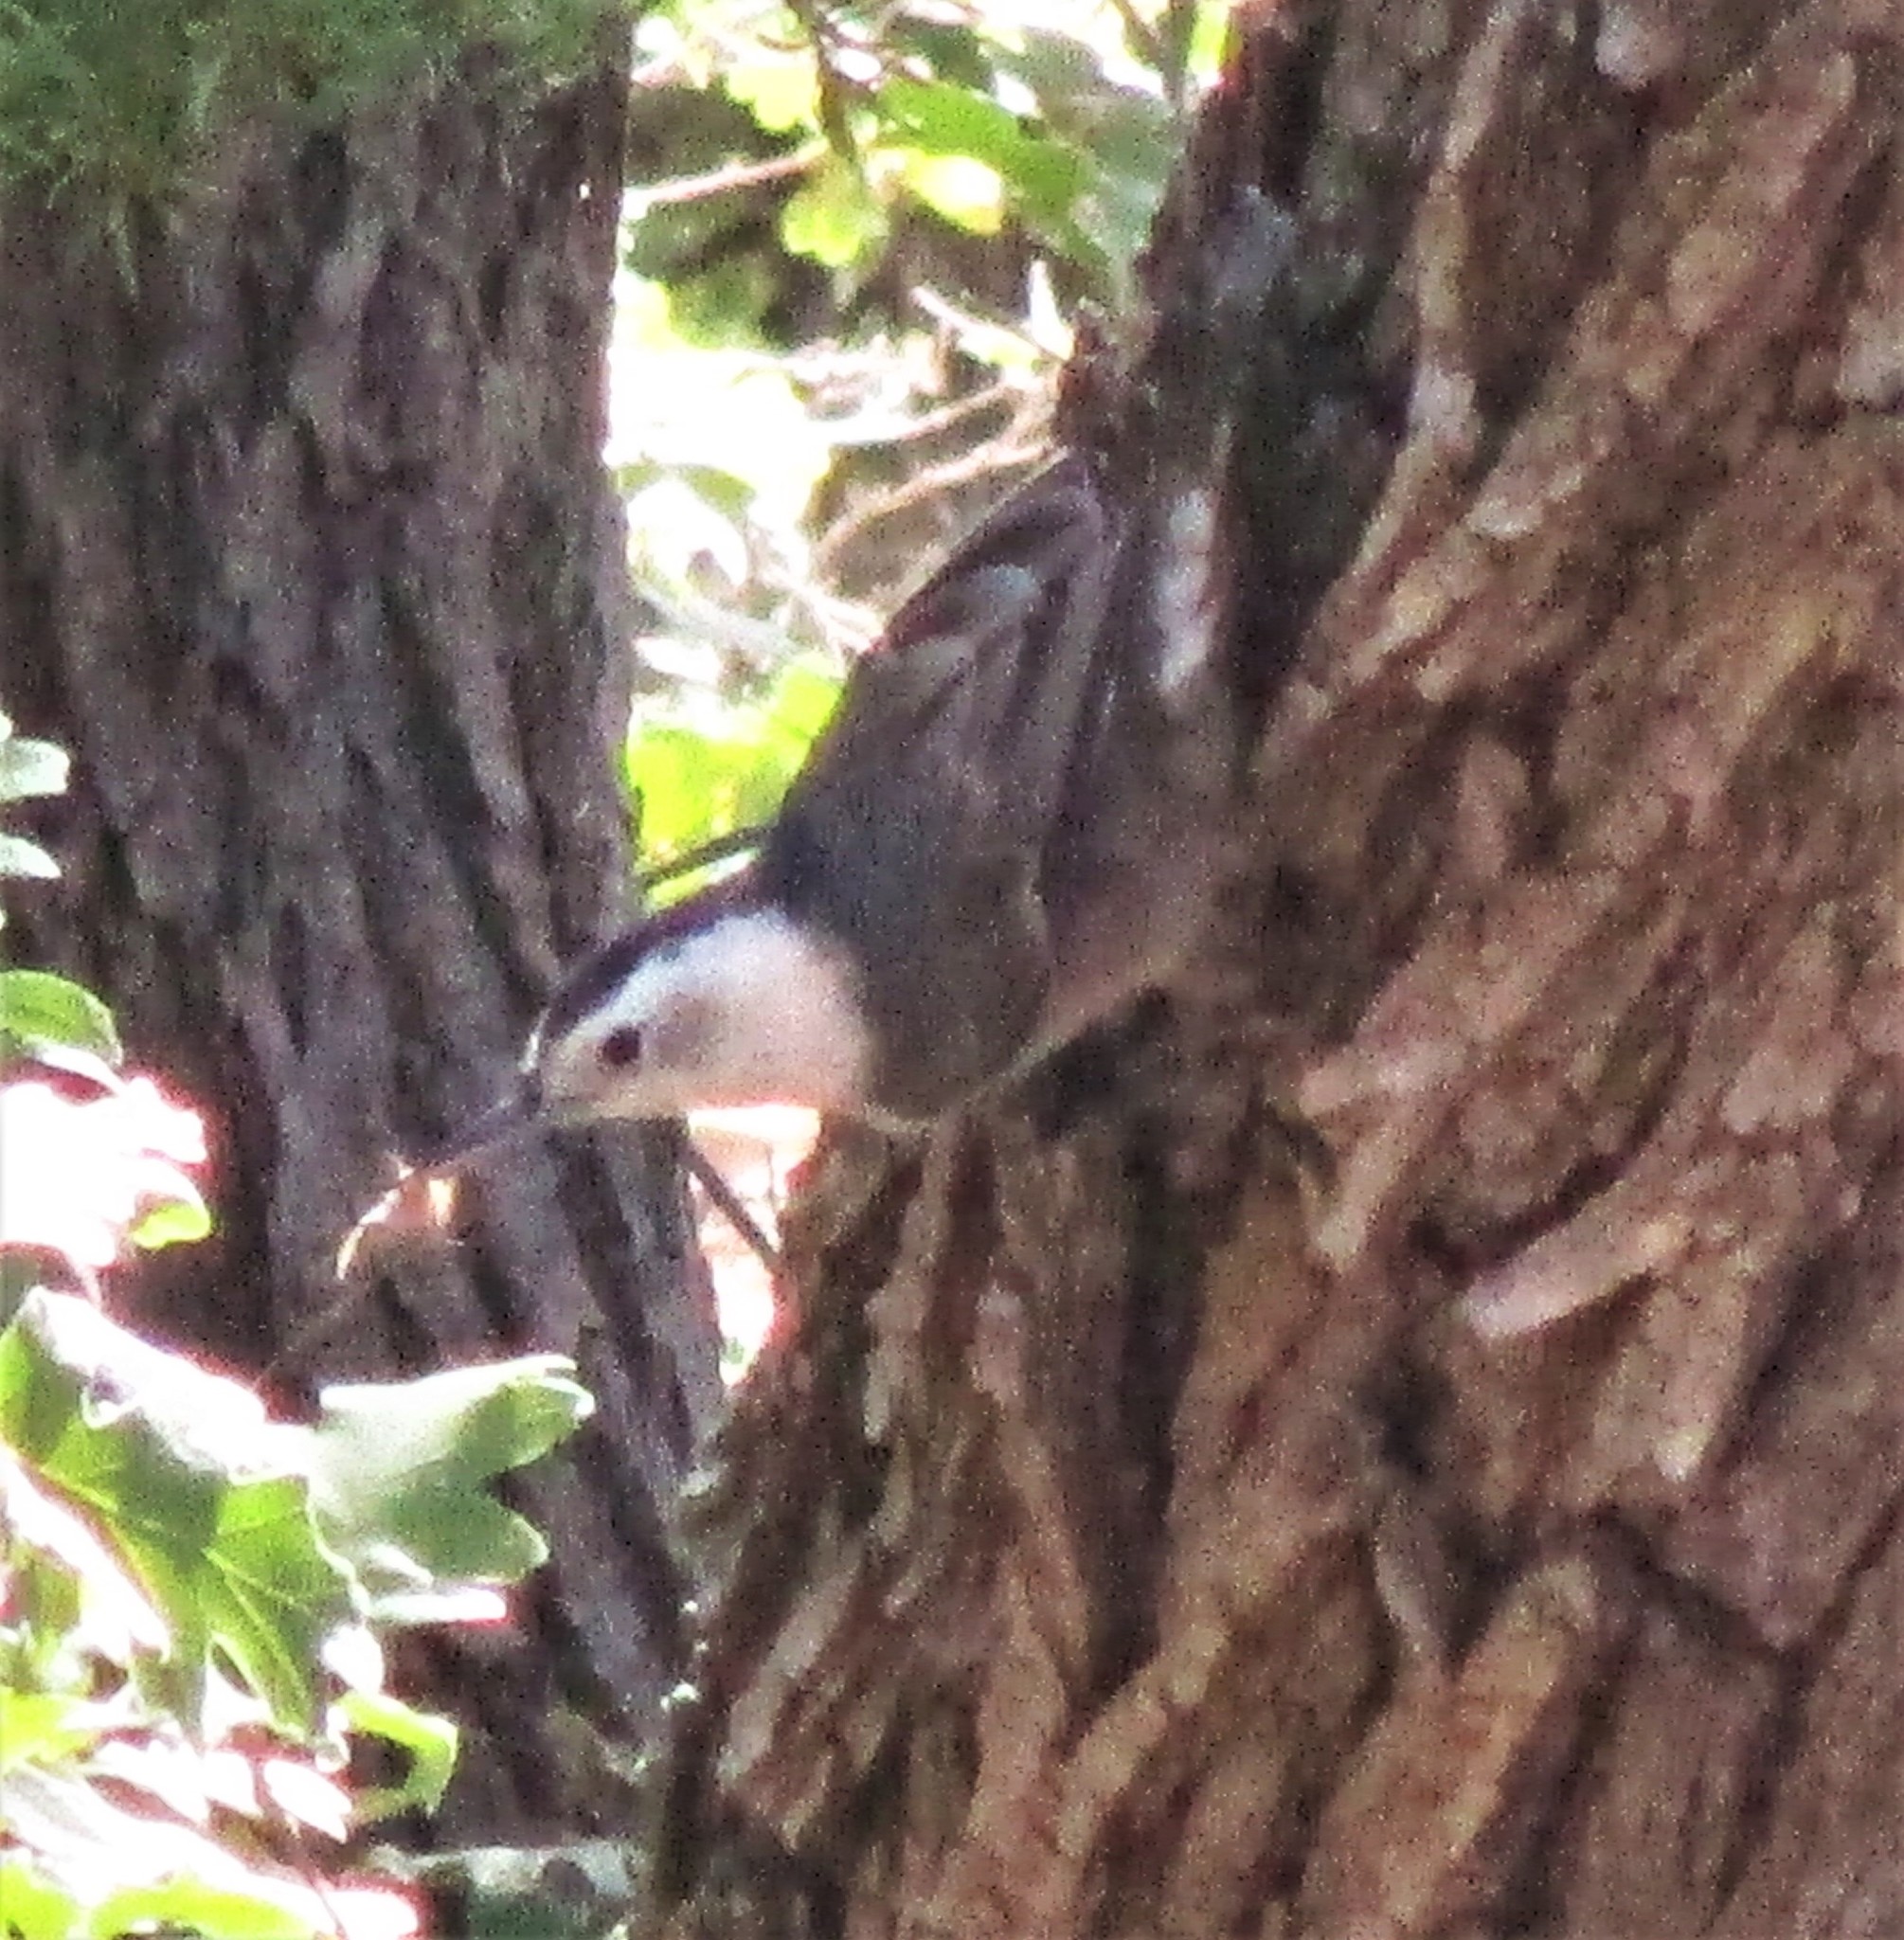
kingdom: Animalia
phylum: Chordata
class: Aves
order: Passeriformes
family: Sittidae
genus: Sitta
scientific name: Sitta carolinensis
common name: White-breasted nuthatch
